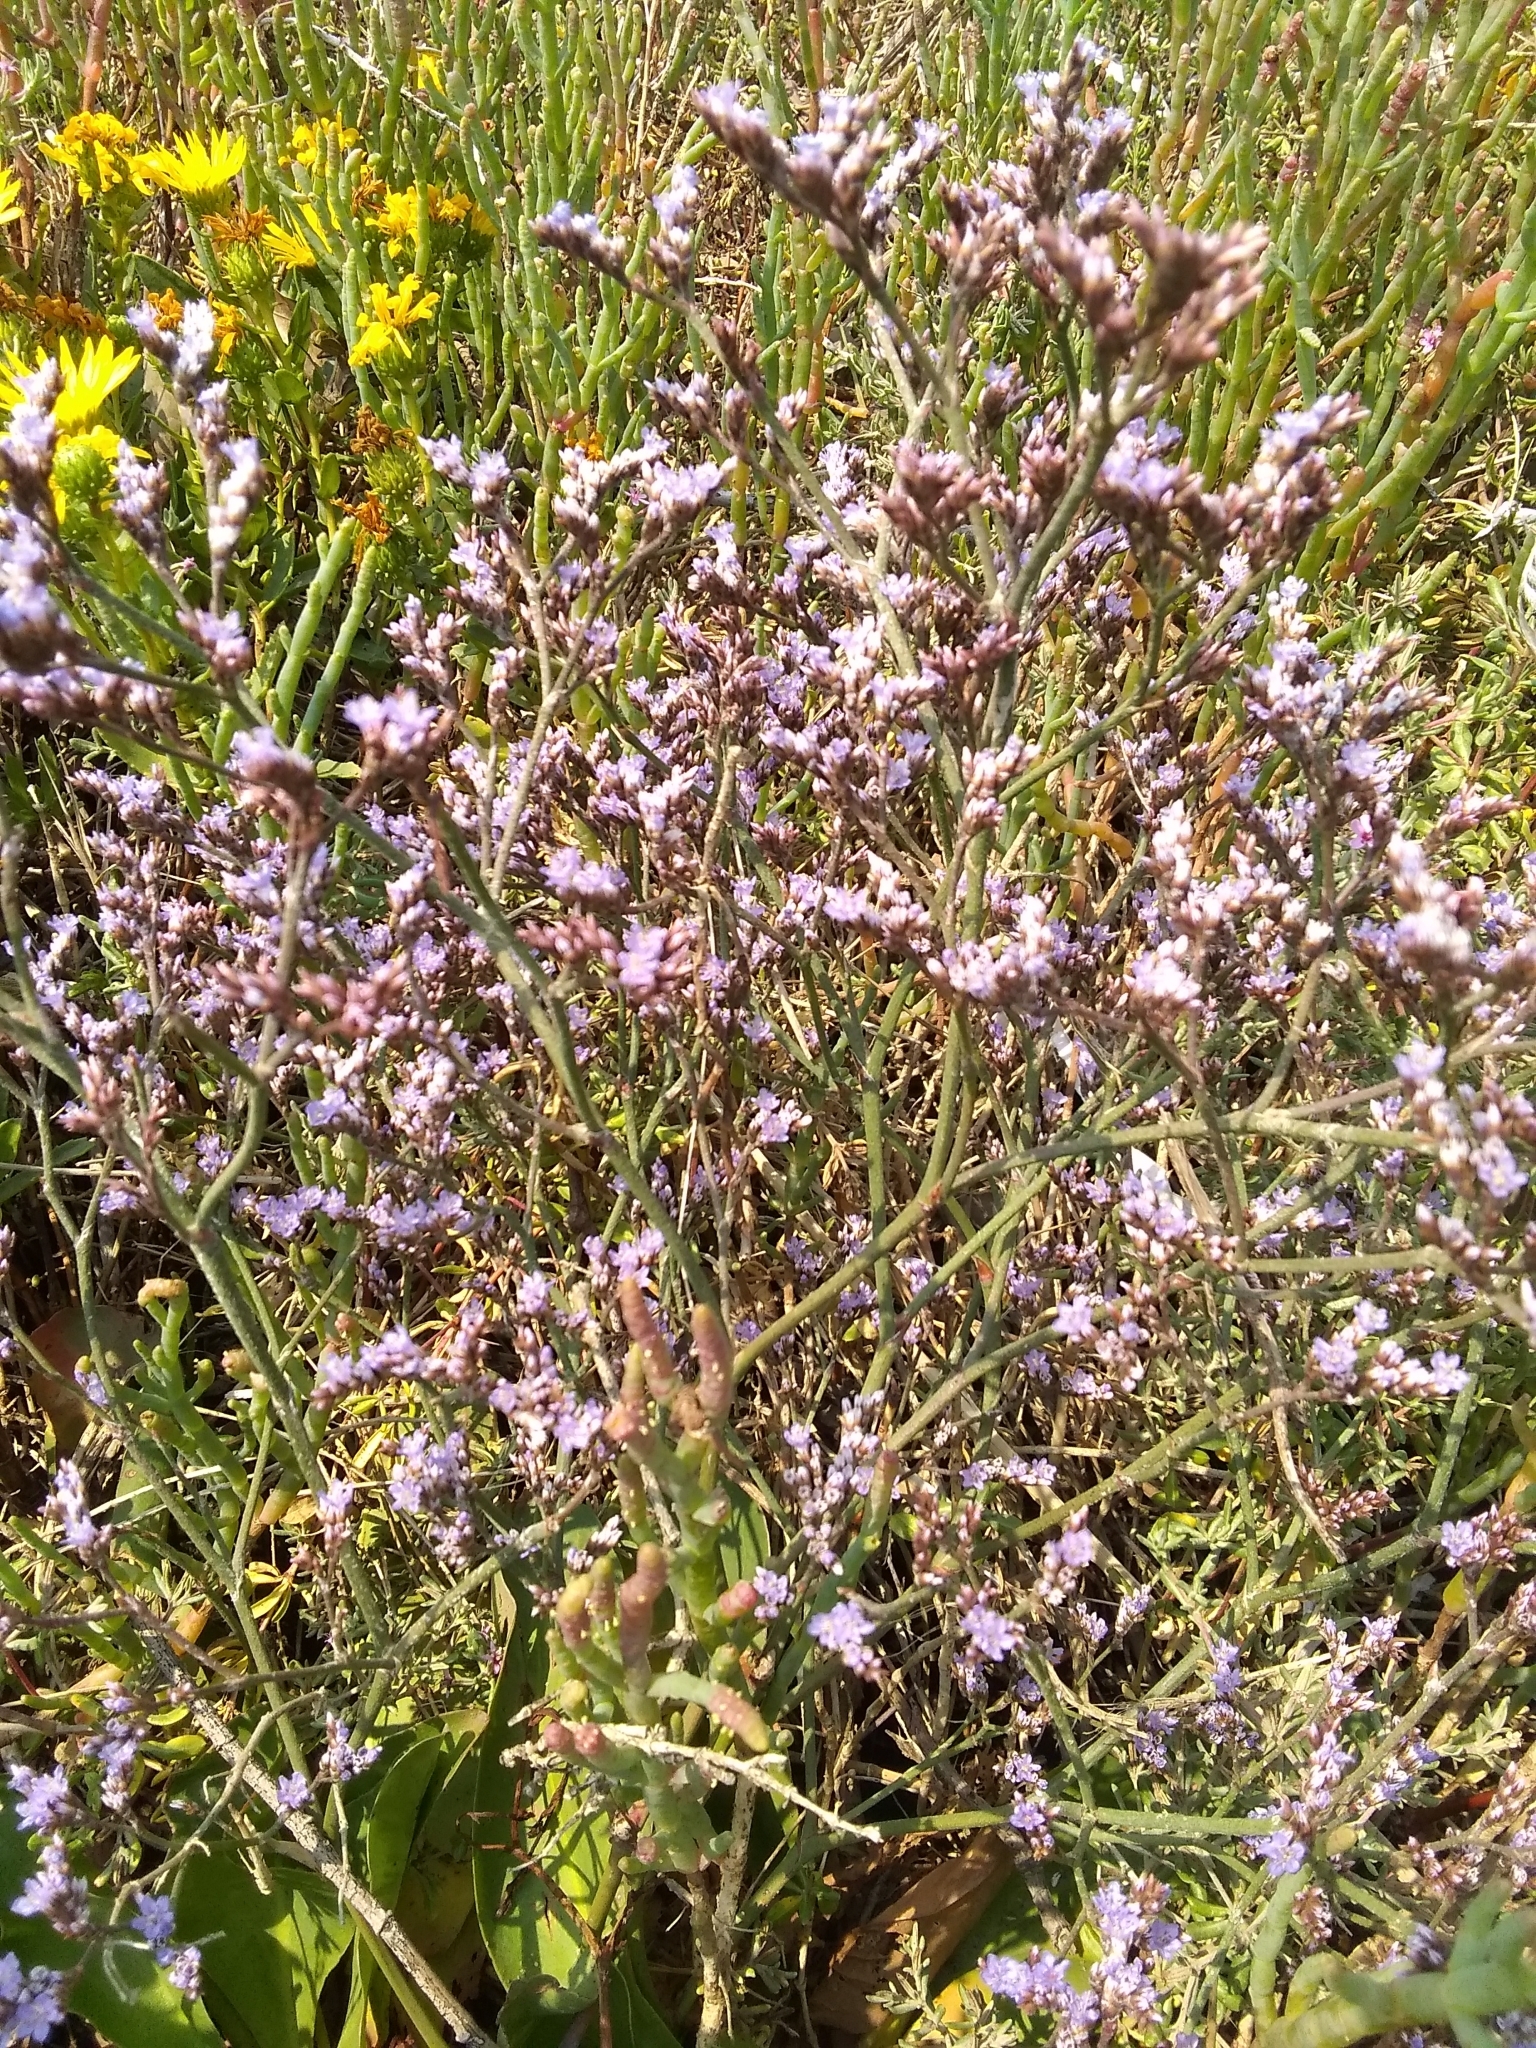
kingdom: Plantae
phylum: Tracheophyta
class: Magnoliopsida
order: Caryophyllales
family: Plumbaginaceae
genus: Limonium
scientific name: Limonium californicum
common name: Marsh-rosemary
